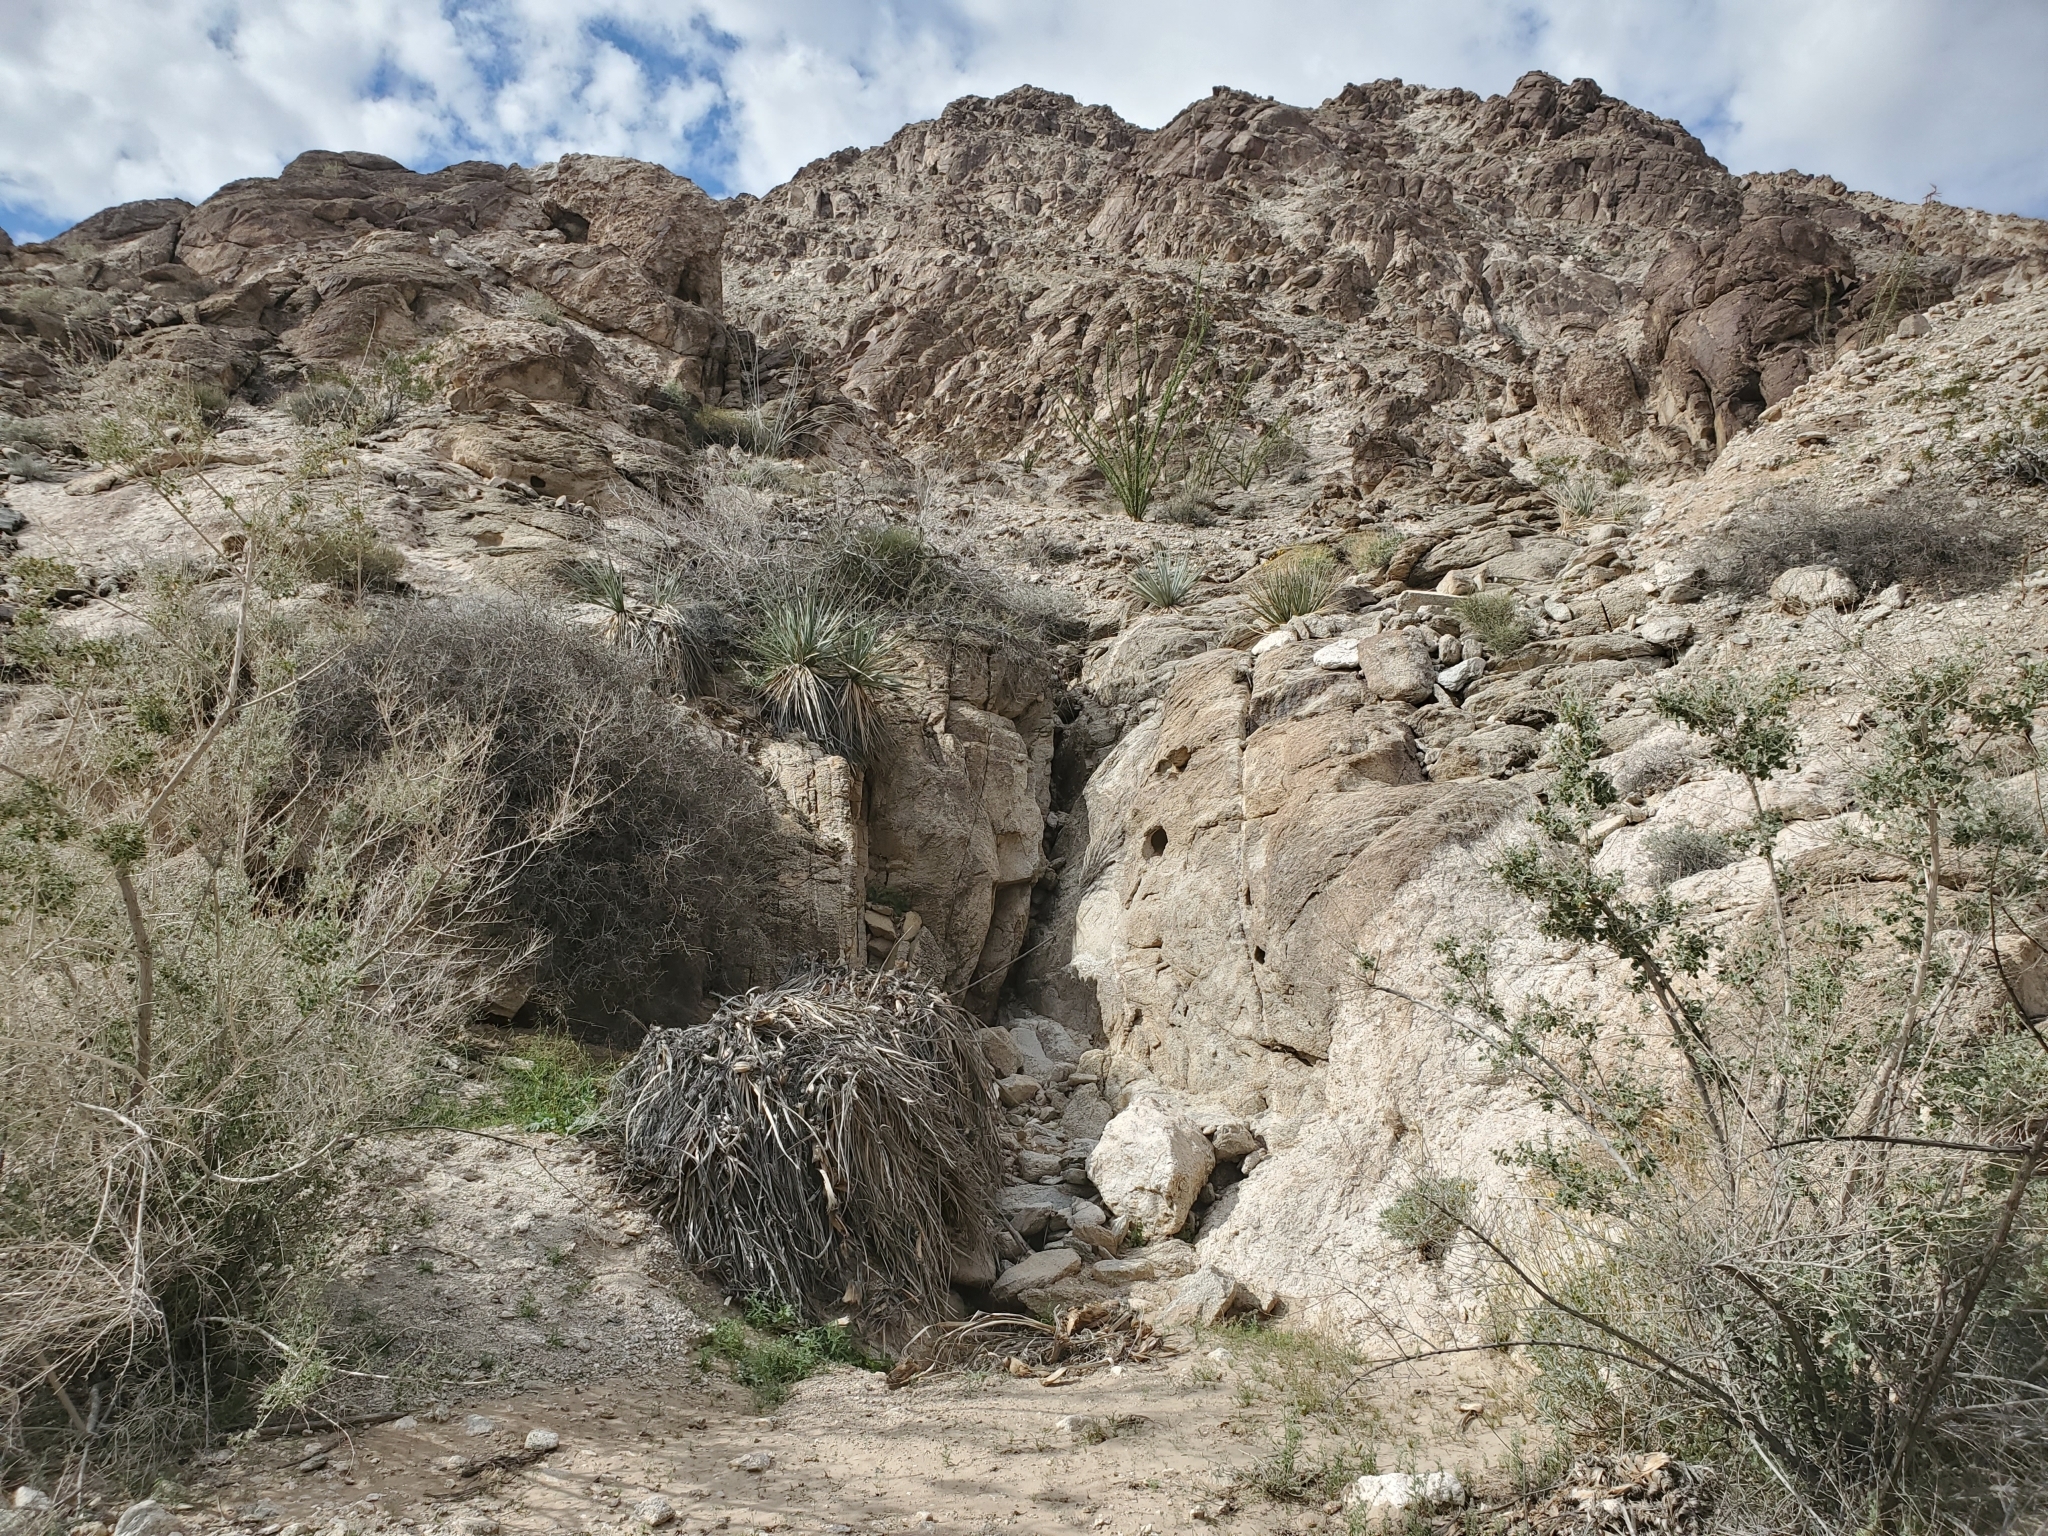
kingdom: Plantae
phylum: Tracheophyta
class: Liliopsida
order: Asparagales
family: Asparagaceae
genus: Nolina
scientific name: Nolina bigelovii
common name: Bigelow bear-grass
